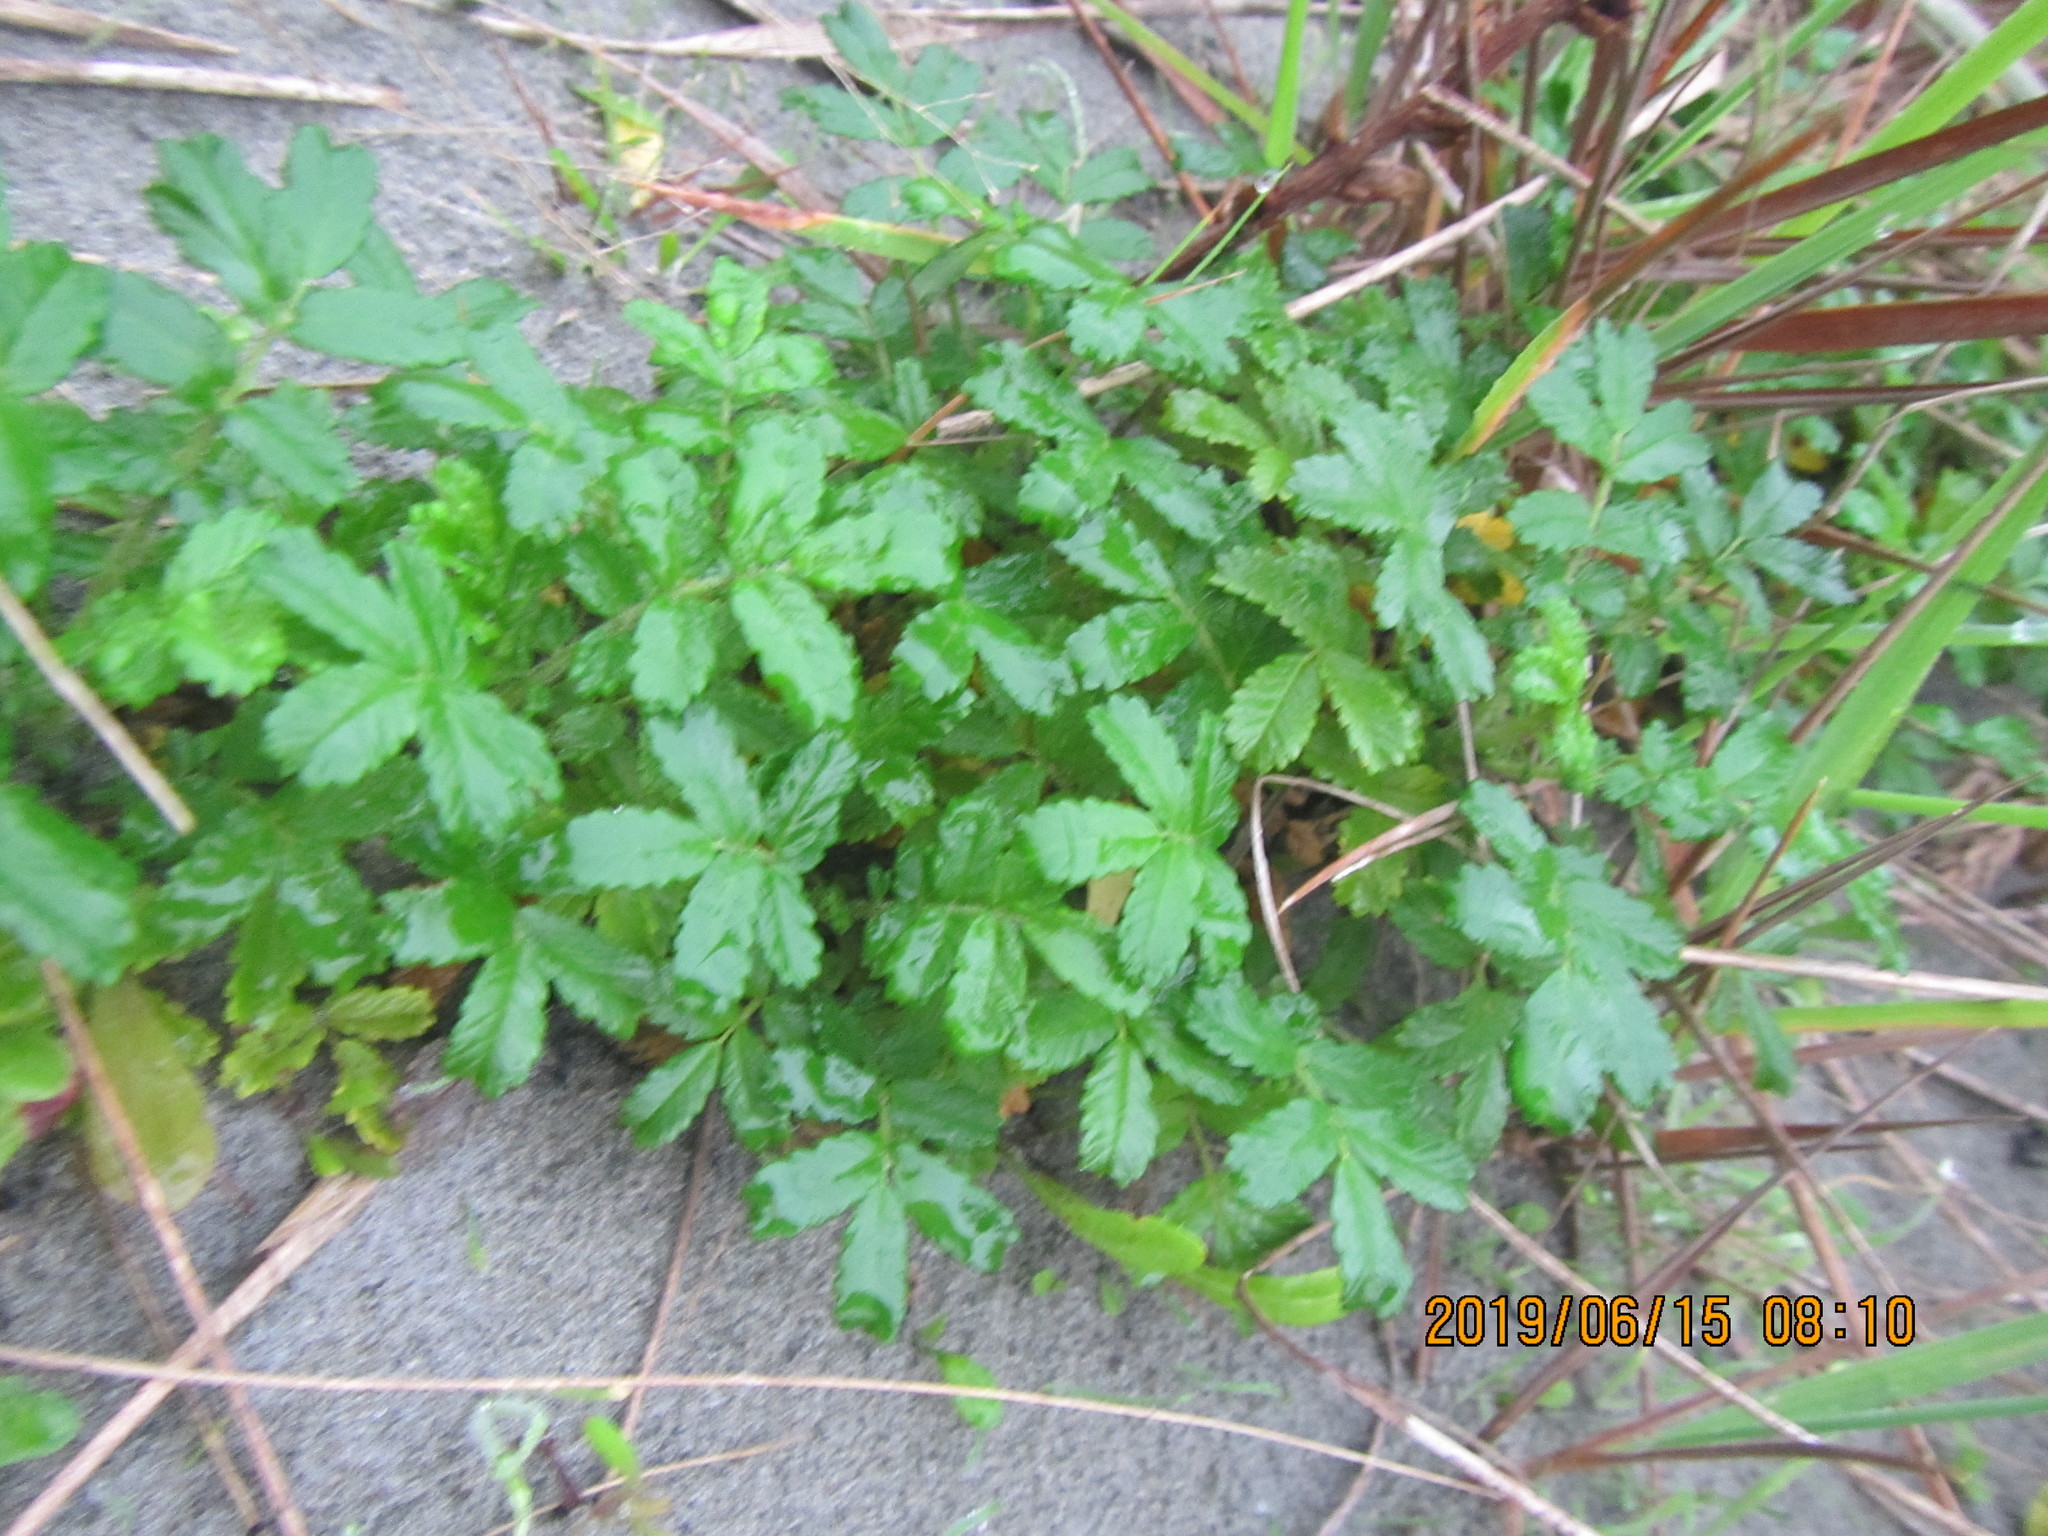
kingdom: Plantae
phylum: Tracheophyta
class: Magnoliopsida
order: Rosales
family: Rosaceae
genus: Acaena
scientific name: Acaena novae-zelandiae
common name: Pirri-pirri-bur
